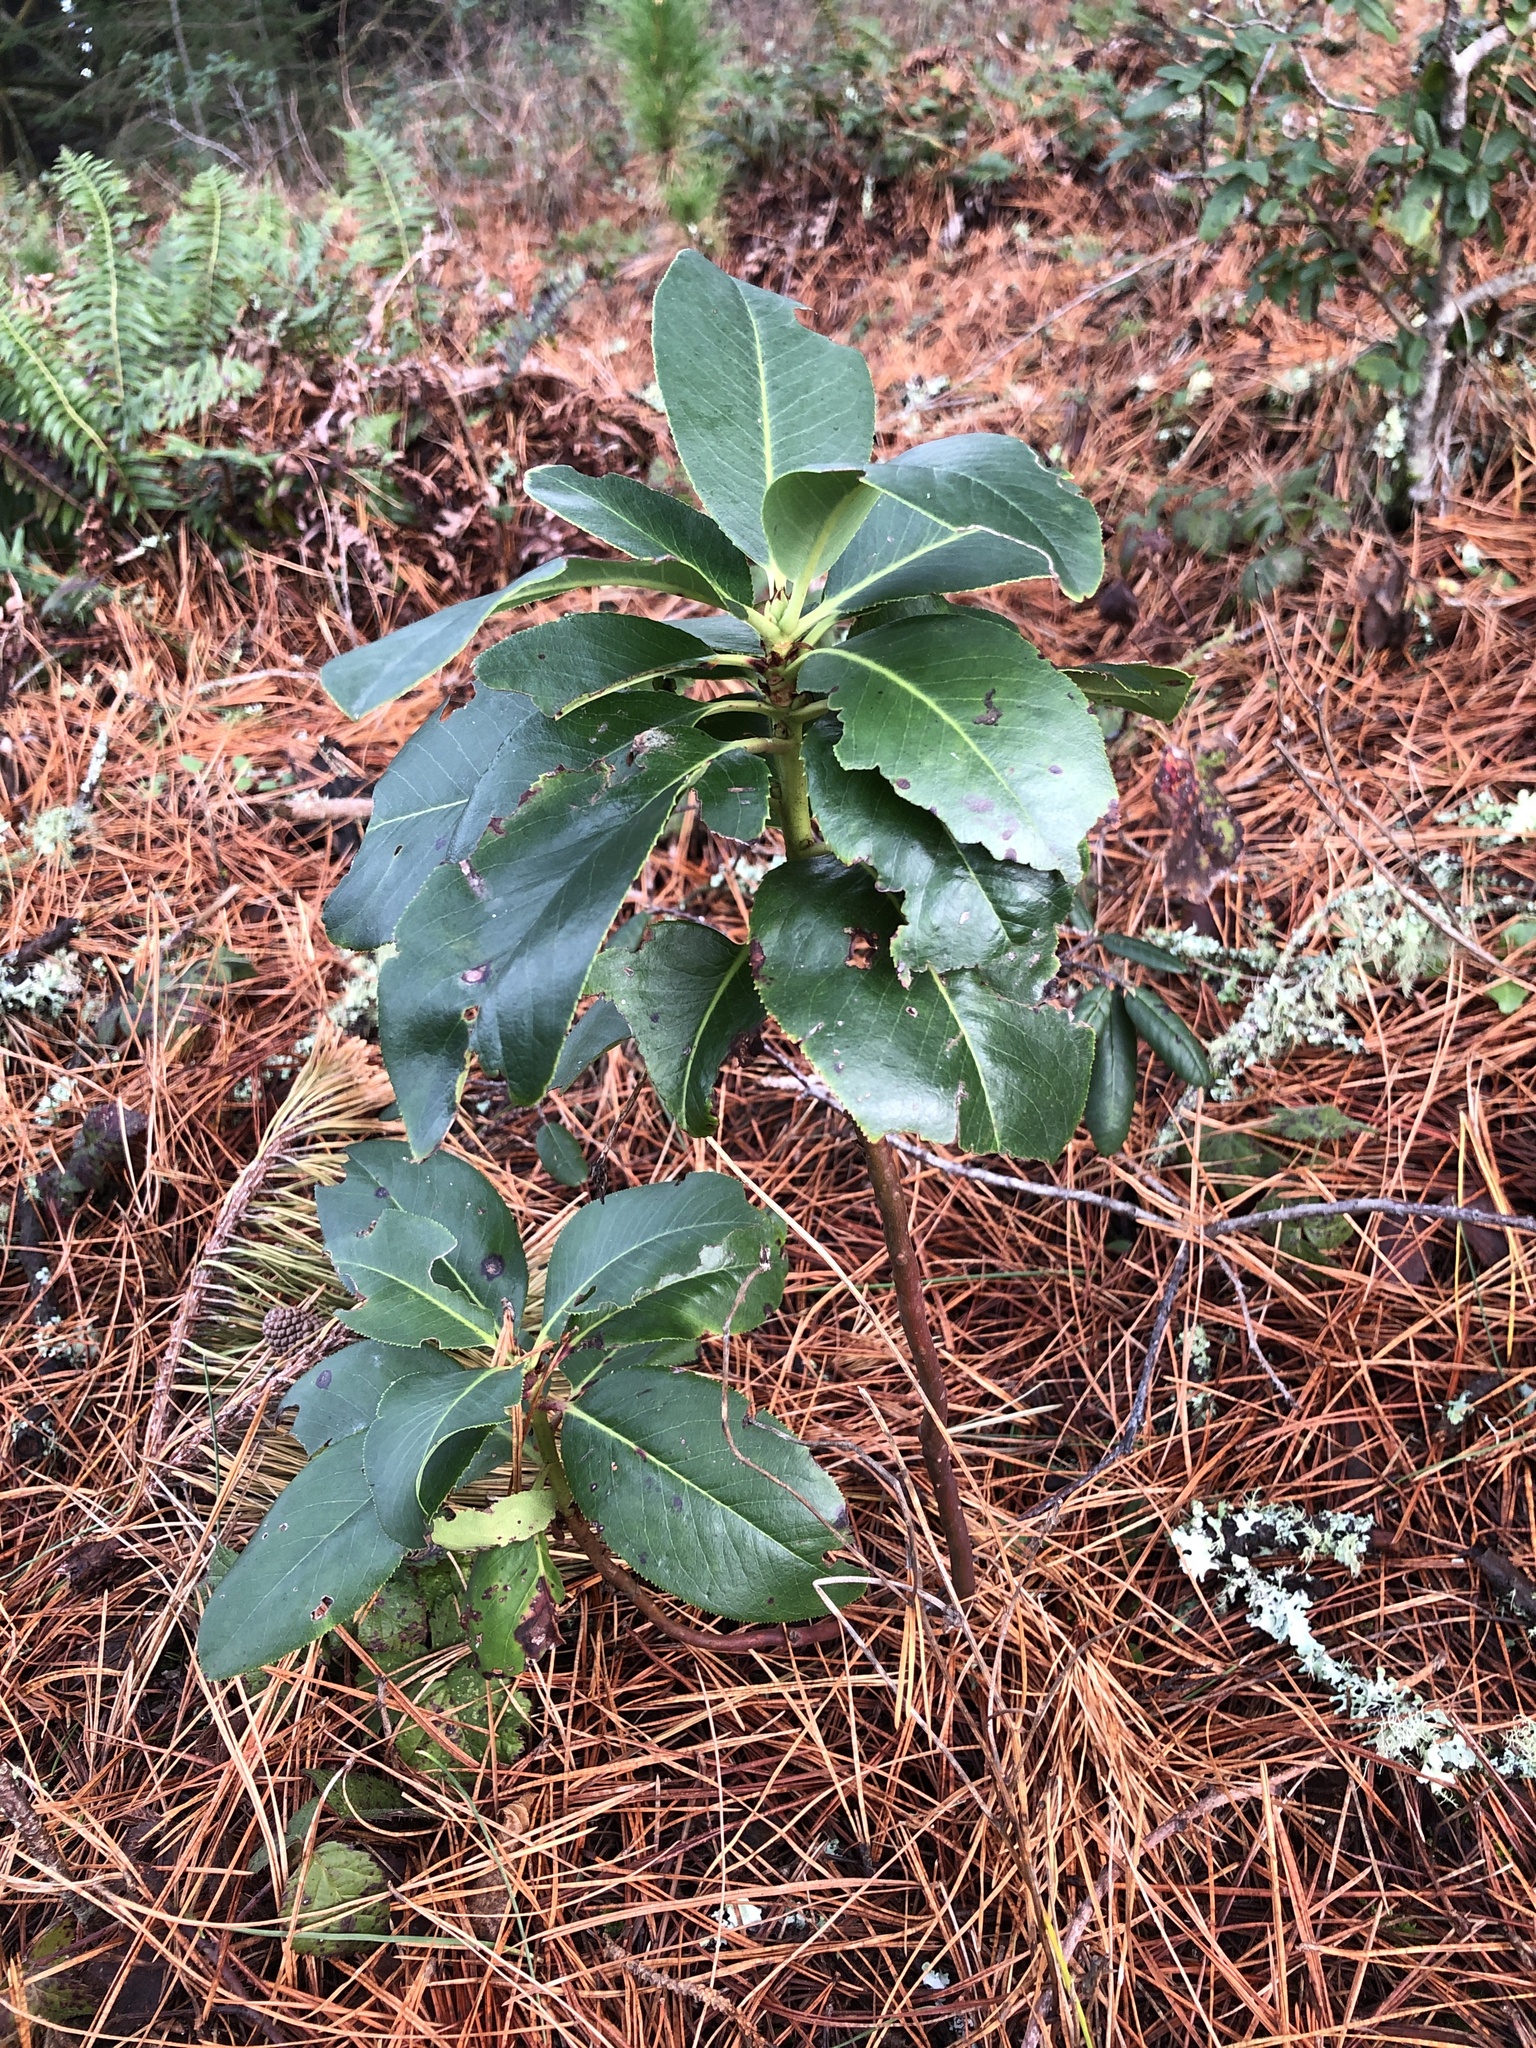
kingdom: Plantae
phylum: Tracheophyta
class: Magnoliopsida
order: Ericales
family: Ericaceae
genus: Arbutus
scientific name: Arbutus menziesii
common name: Pacific madrone
